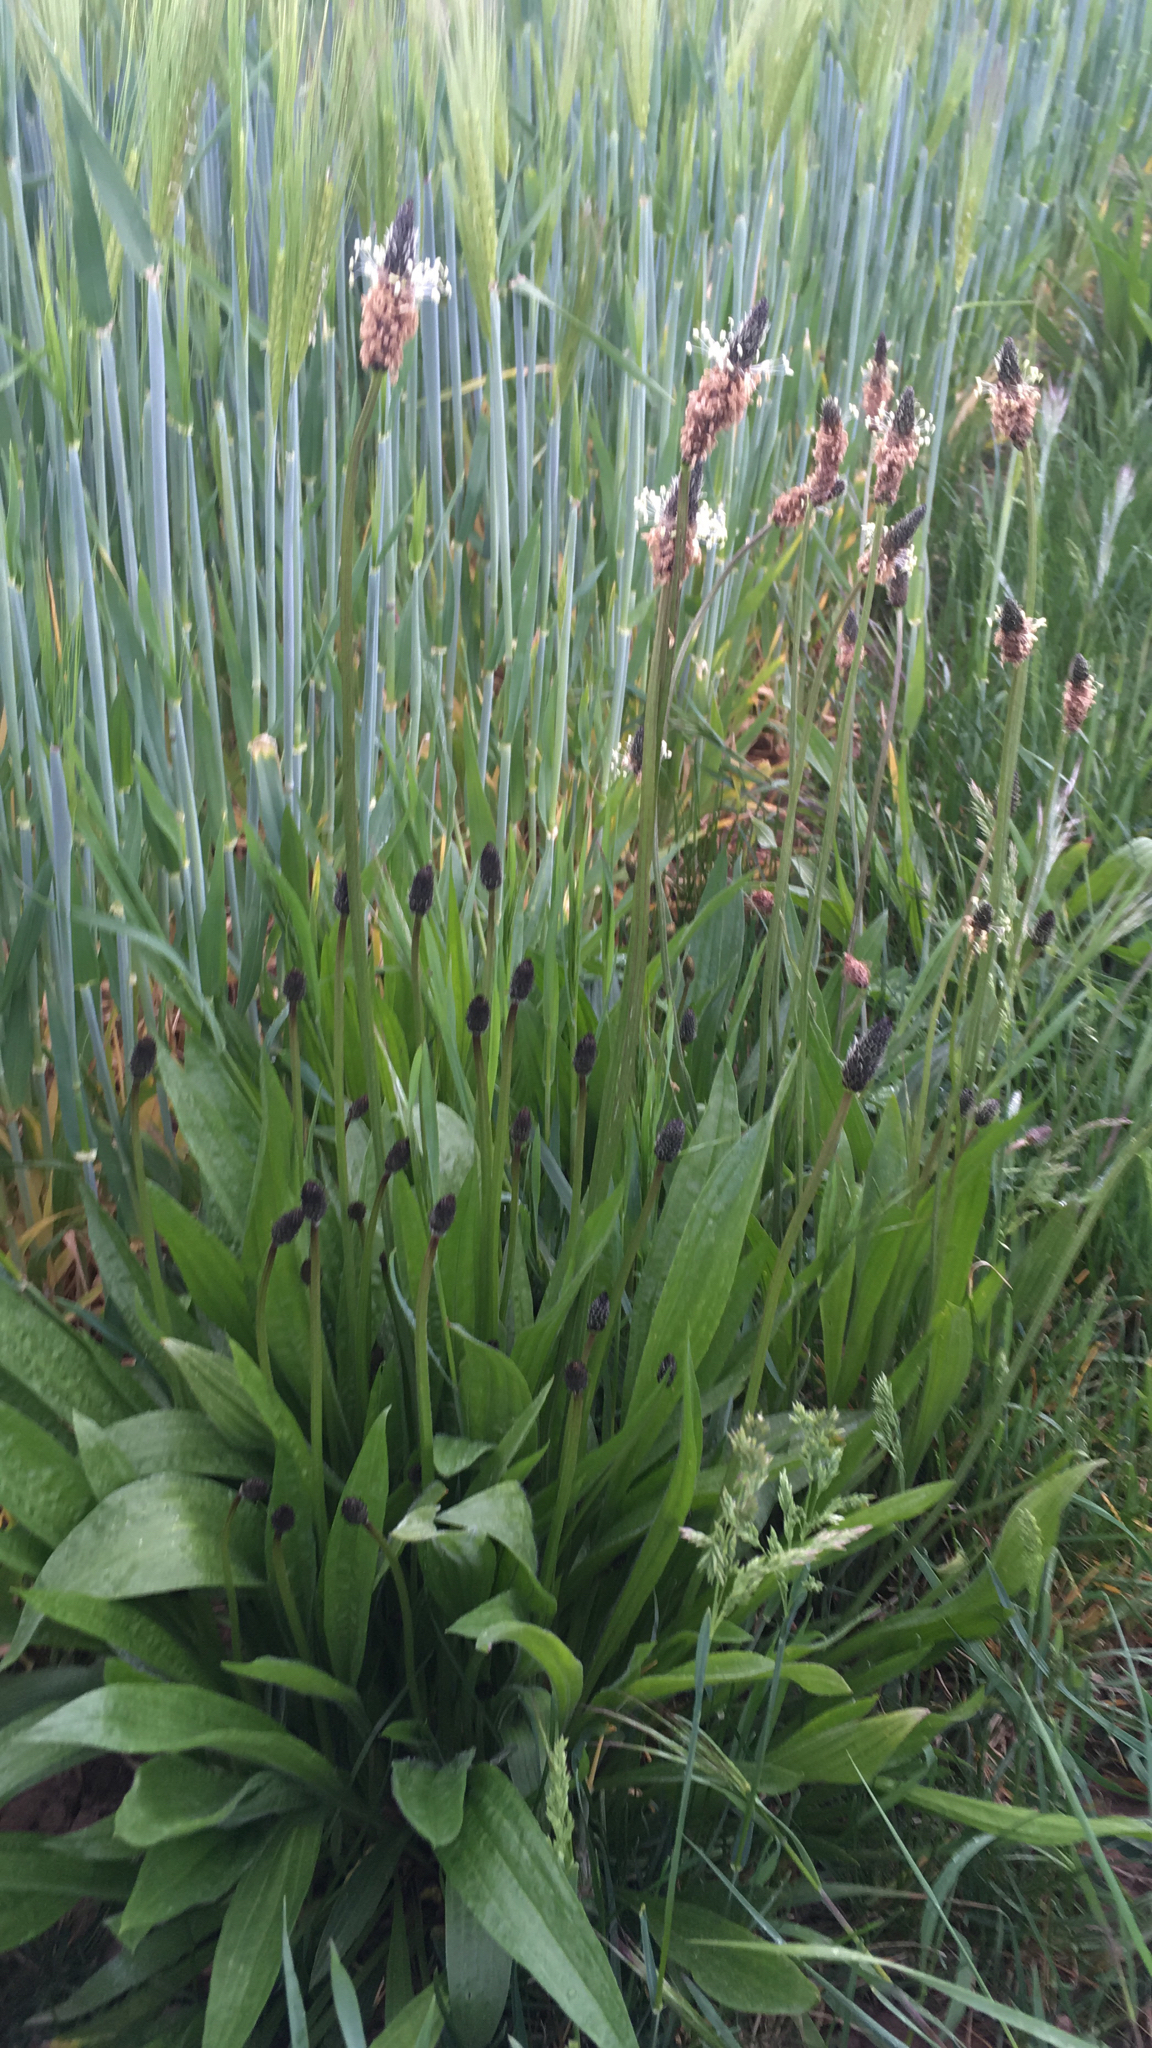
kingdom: Plantae
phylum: Tracheophyta
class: Magnoliopsida
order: Lamiales
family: Plantaginaceae
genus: Plantago
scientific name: Plantago lanceolata
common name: Ribwort plantain
